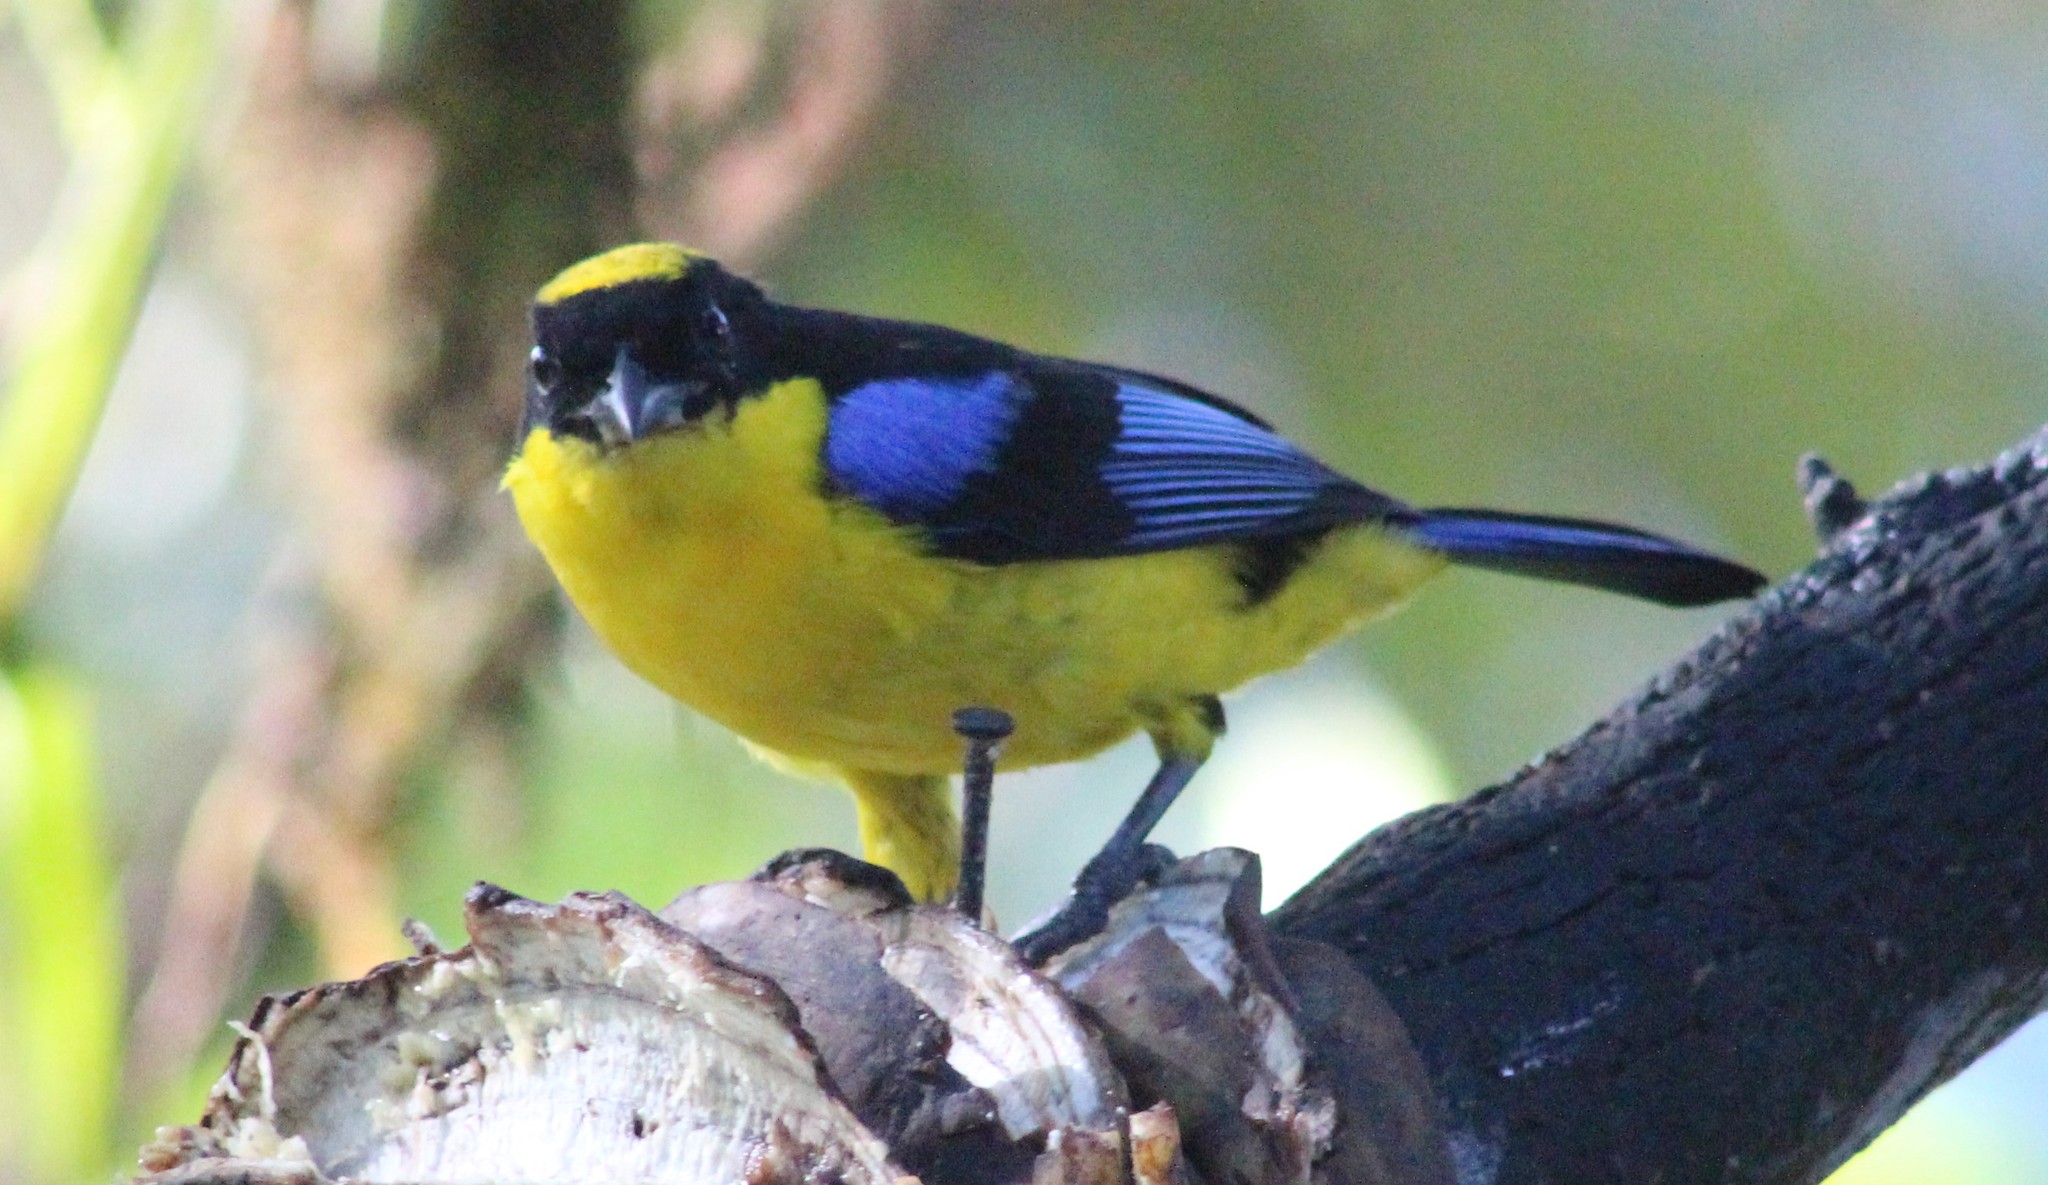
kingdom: Animalia
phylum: Chordata
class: Aves
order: Passeriformes
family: Thraupidae
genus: Anisognathus
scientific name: Anisognathus somptuosus
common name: Blue-winged mountain-tanager
